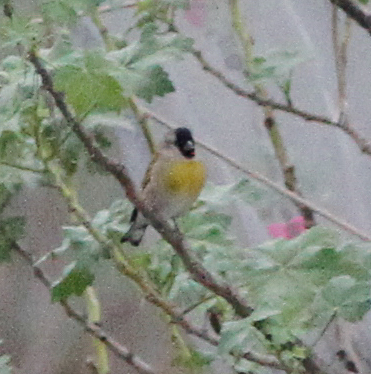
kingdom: Animalia
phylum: Chordata
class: Aves
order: Passeriformes
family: Fringillidae
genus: Spinus
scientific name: Spinus lawrencei
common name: Lawrence's goldfinch
